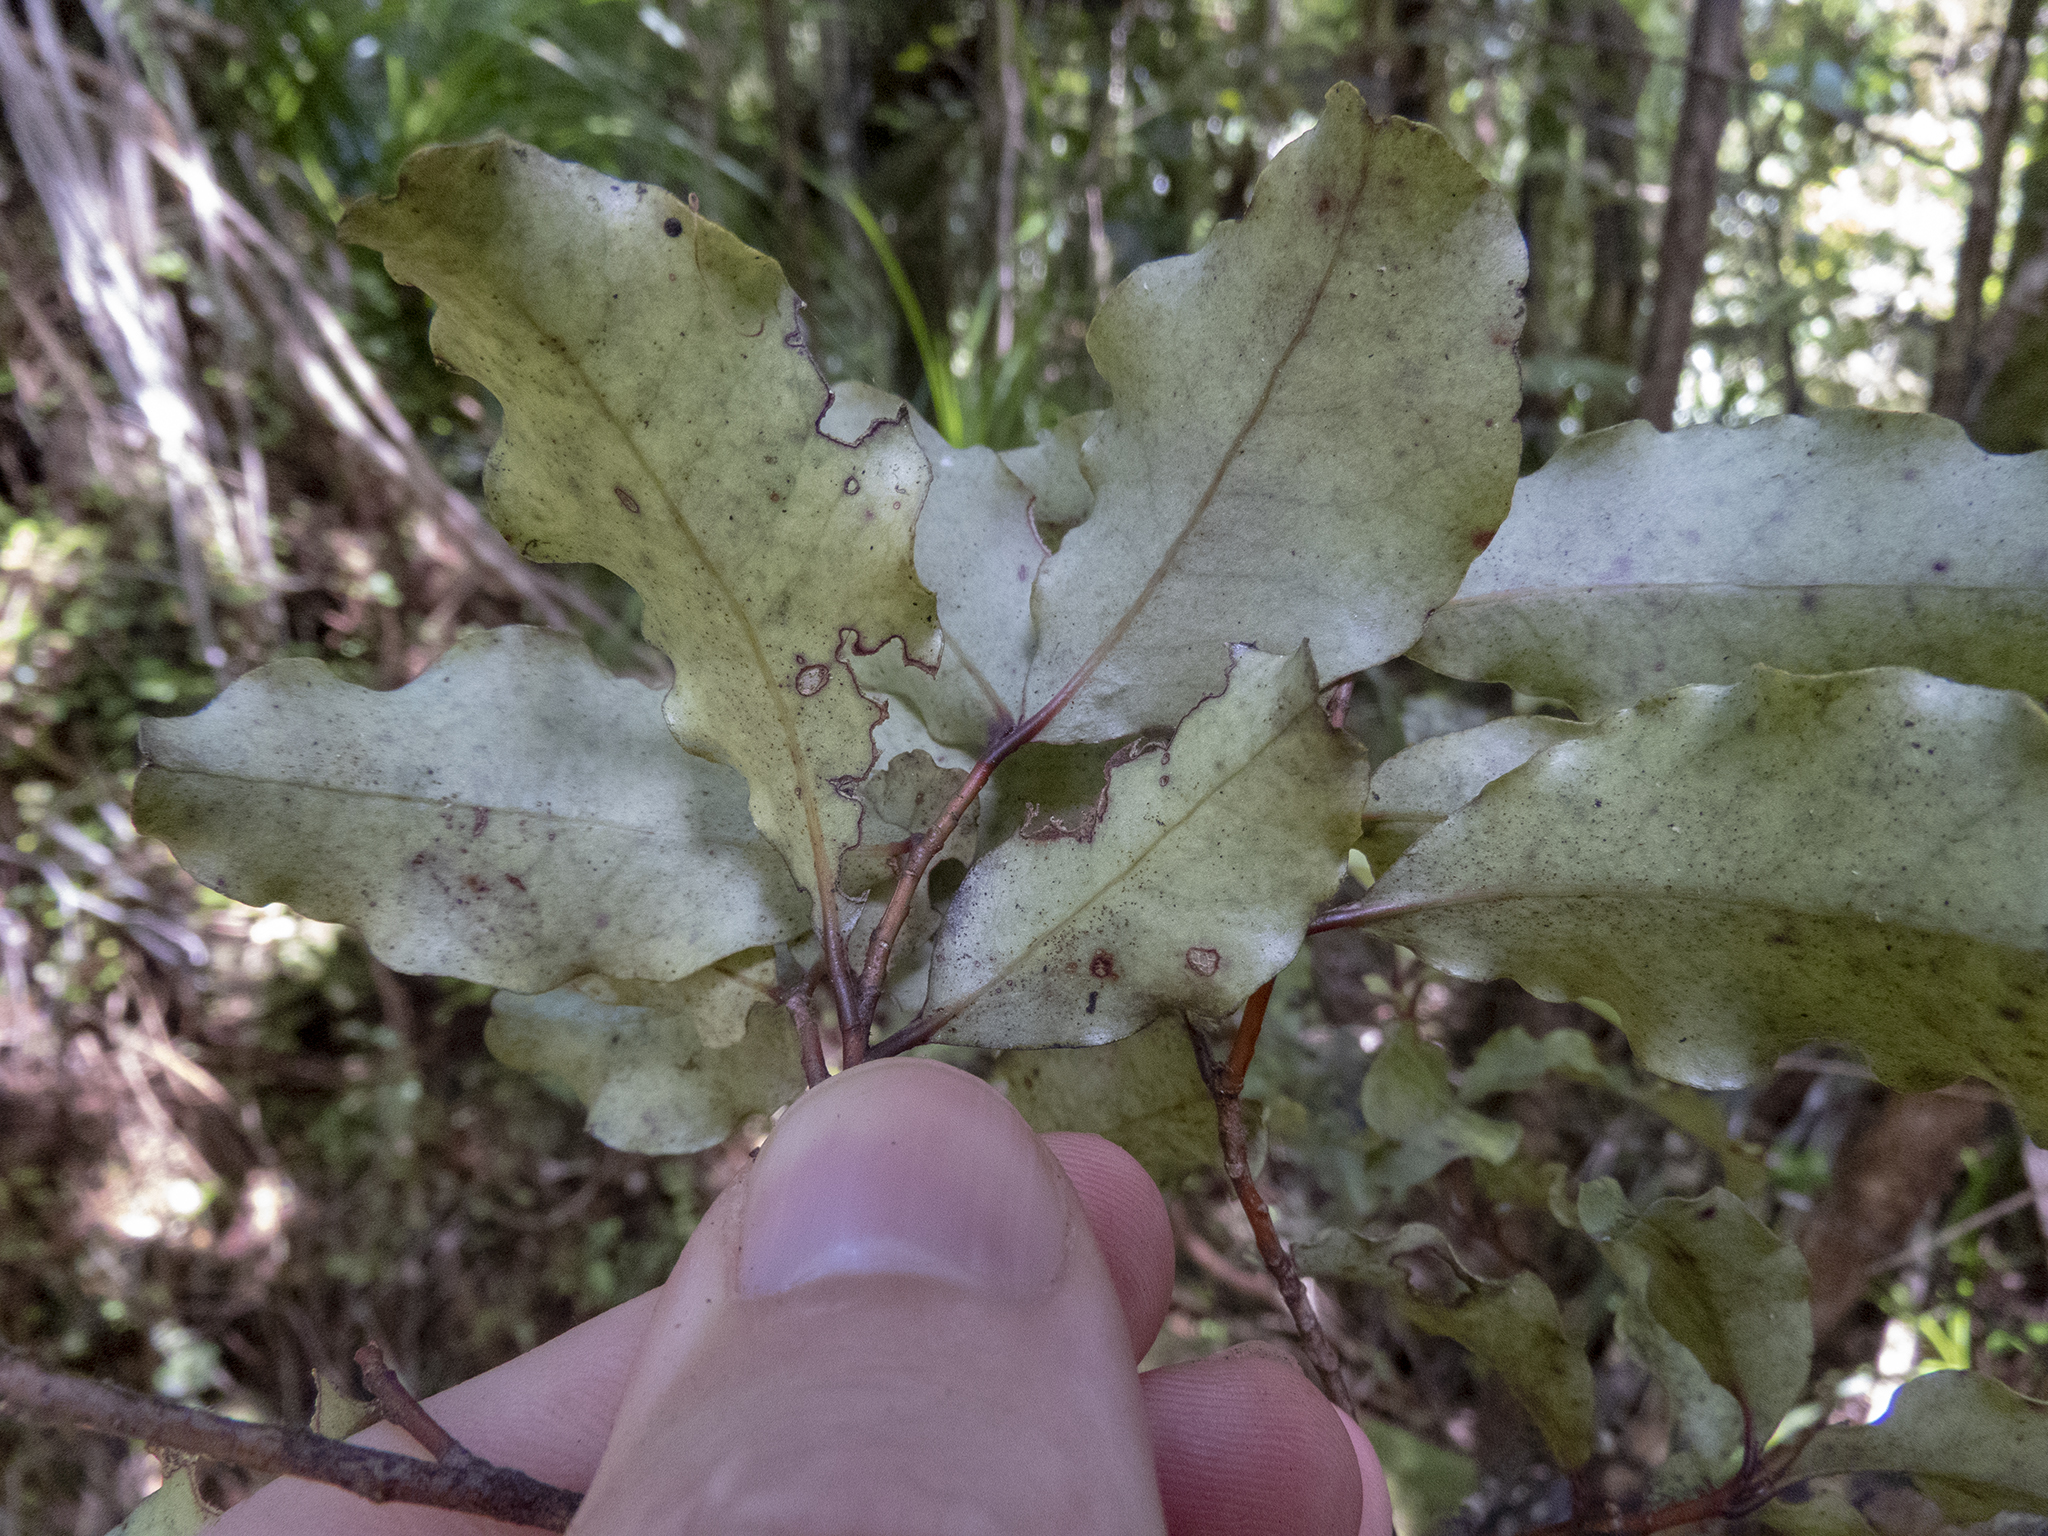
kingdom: Plantae
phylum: Tracheophyta
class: Magnoliopsida
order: Ericales
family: Primulaceae
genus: Myrsine
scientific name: Myrsine australis
